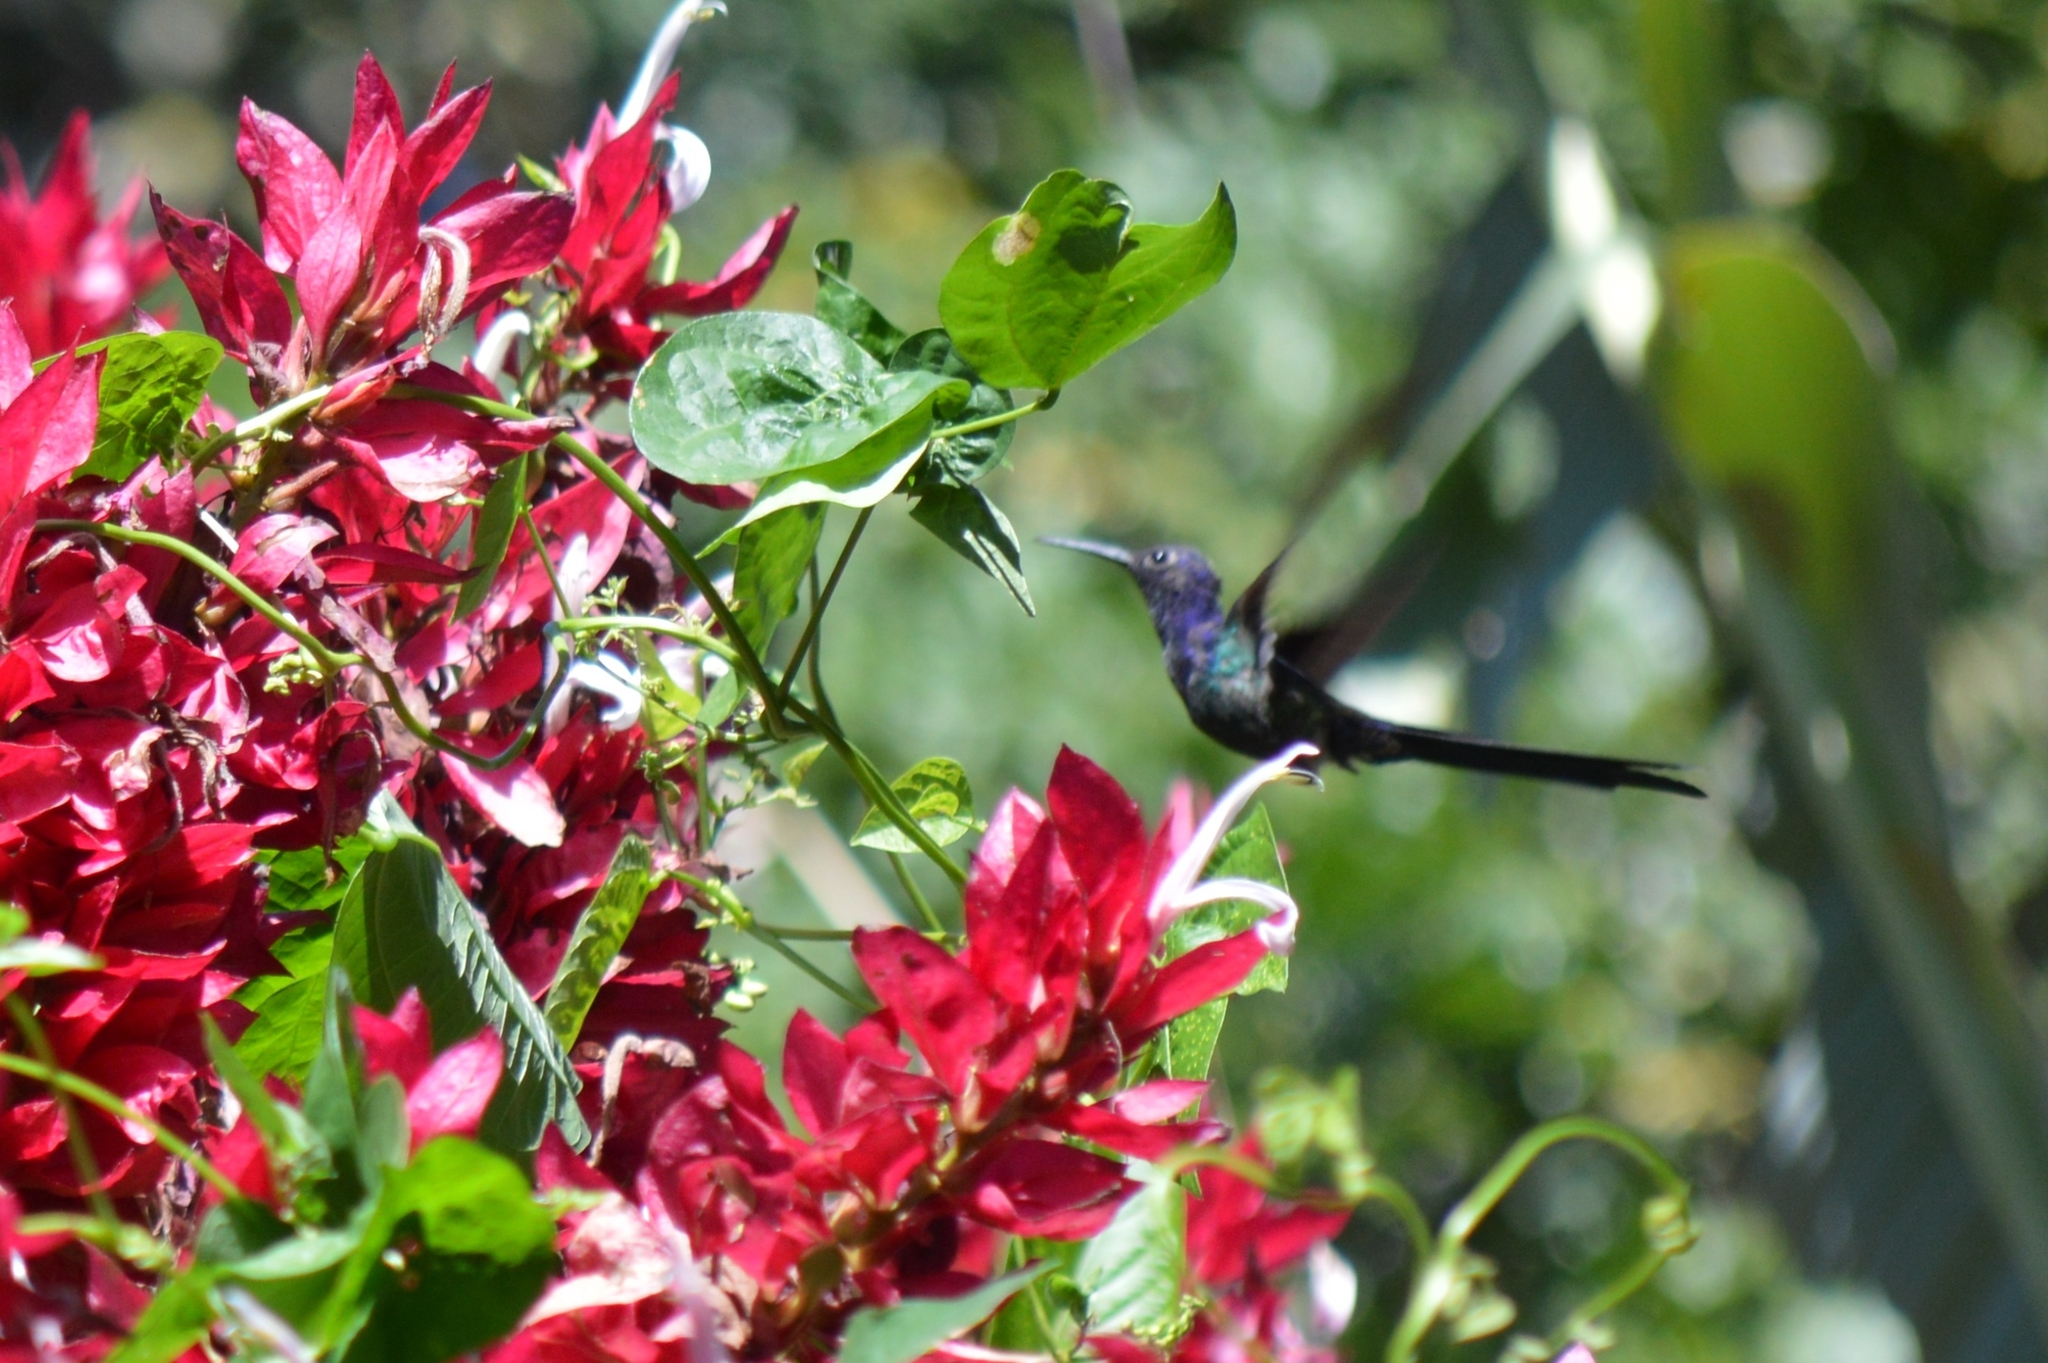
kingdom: Animalia
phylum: Chordata
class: Aves
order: Apodiformes
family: Trochilidae
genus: Eupetomena
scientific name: Eupetomena macroura
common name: Swallow-tailed hummingbird
